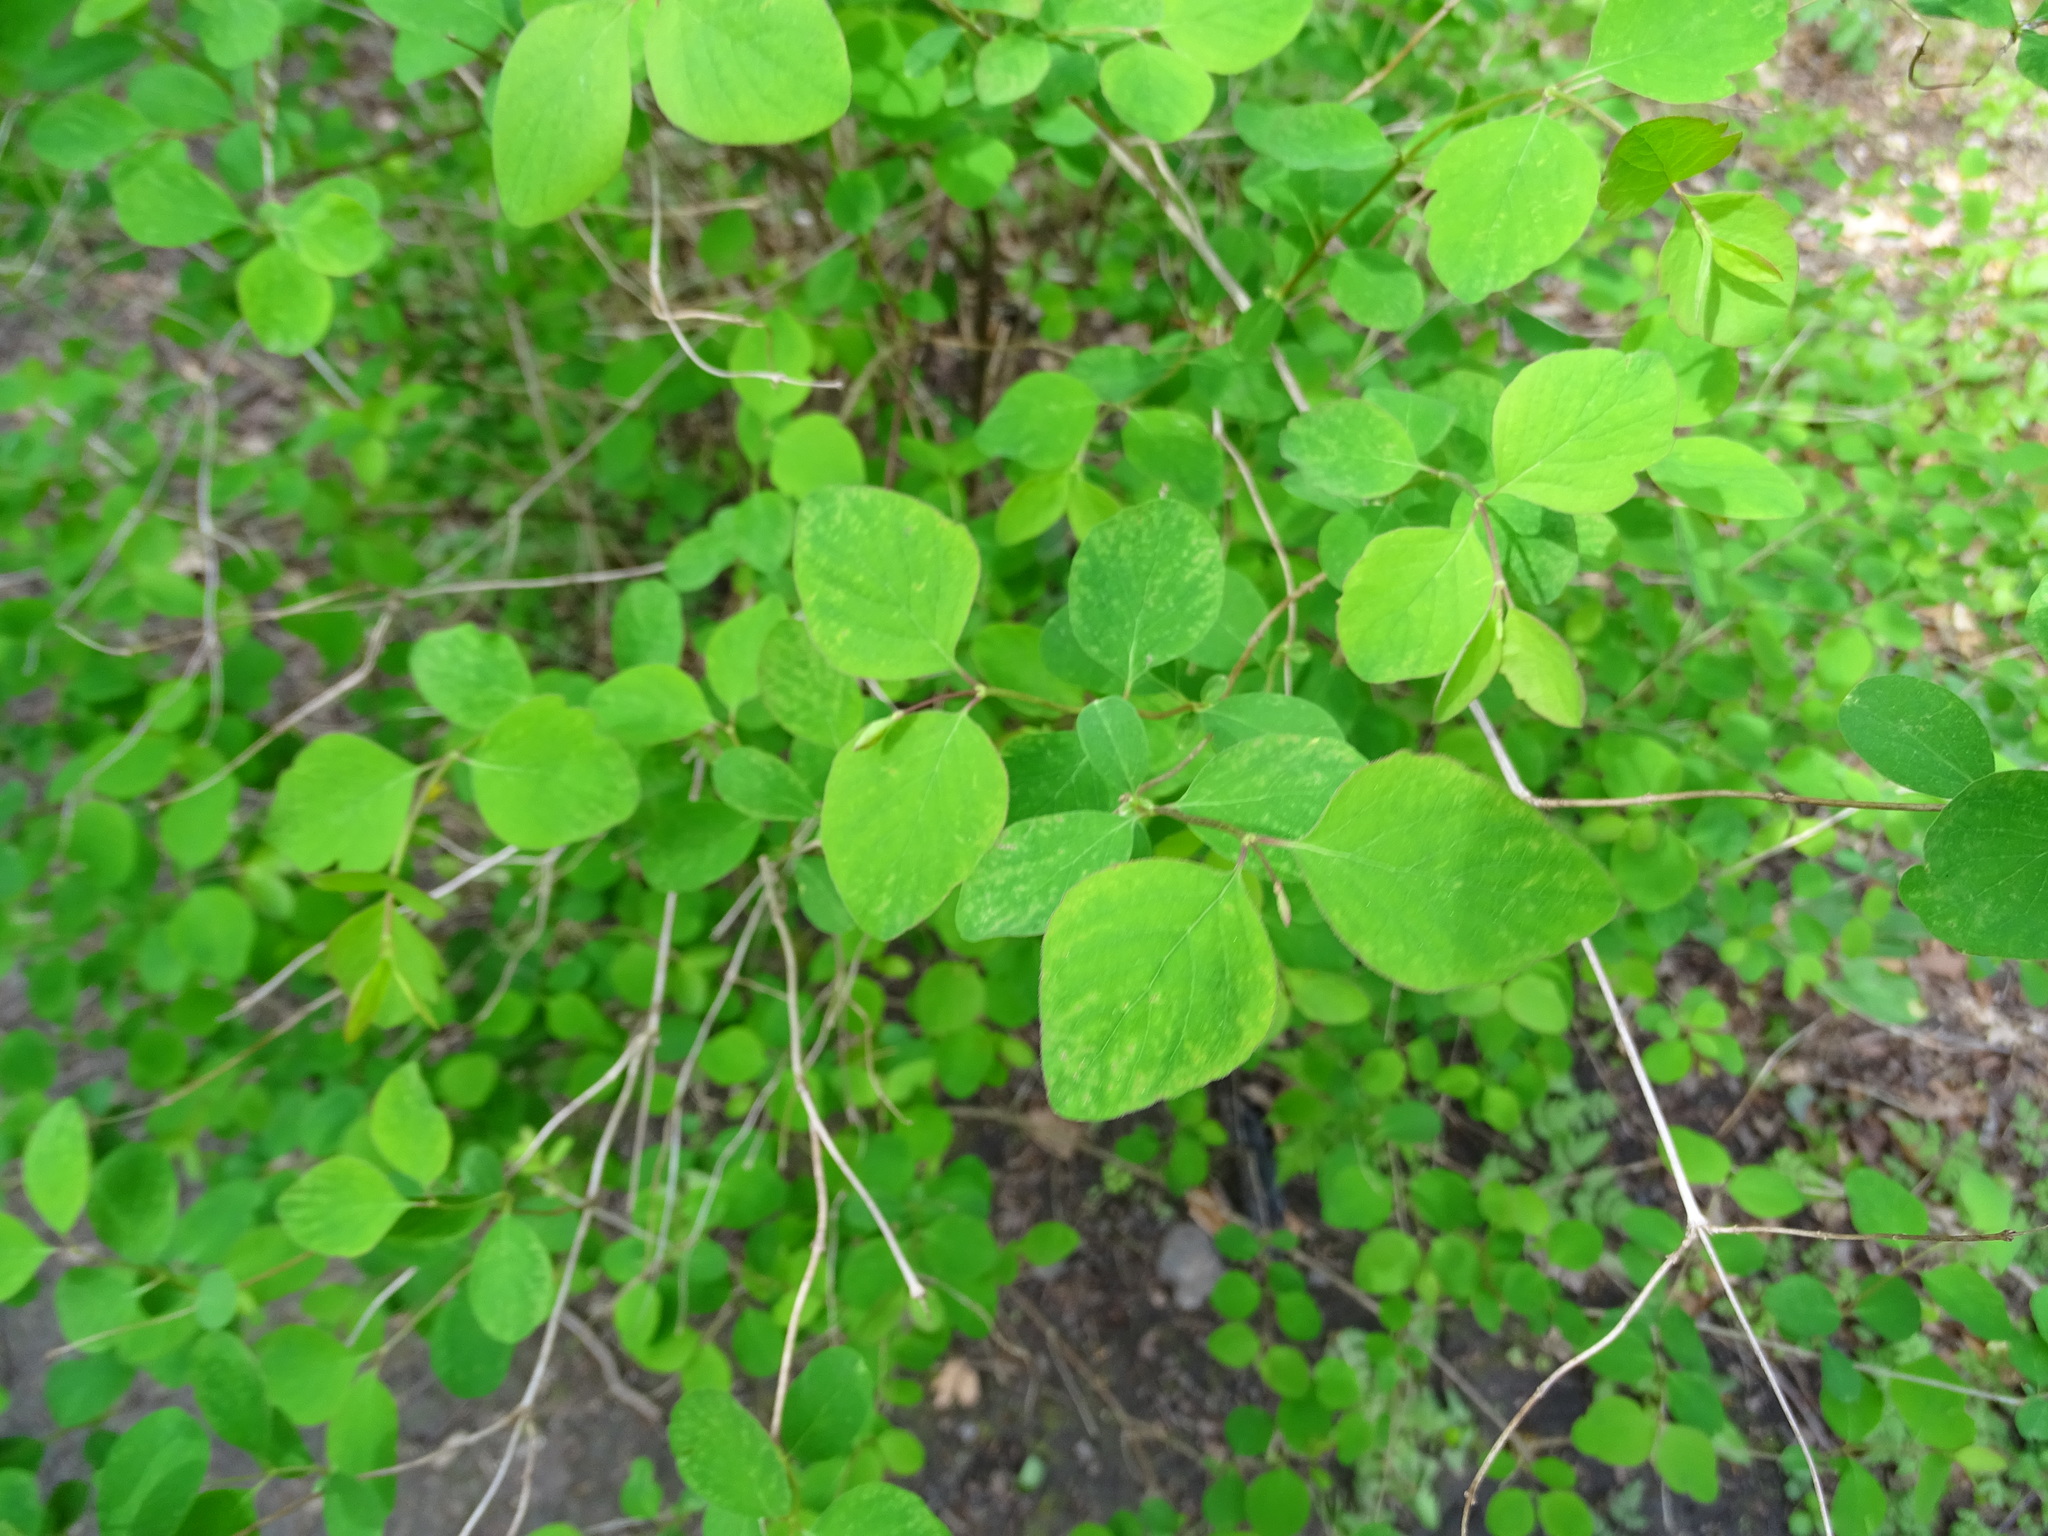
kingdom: Plantae
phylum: Tracheophyta
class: Magnoliopsida
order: Dipsacales
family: Caprifoliaceae
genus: Symphoricarpos
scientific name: Symphoricarpos albus
